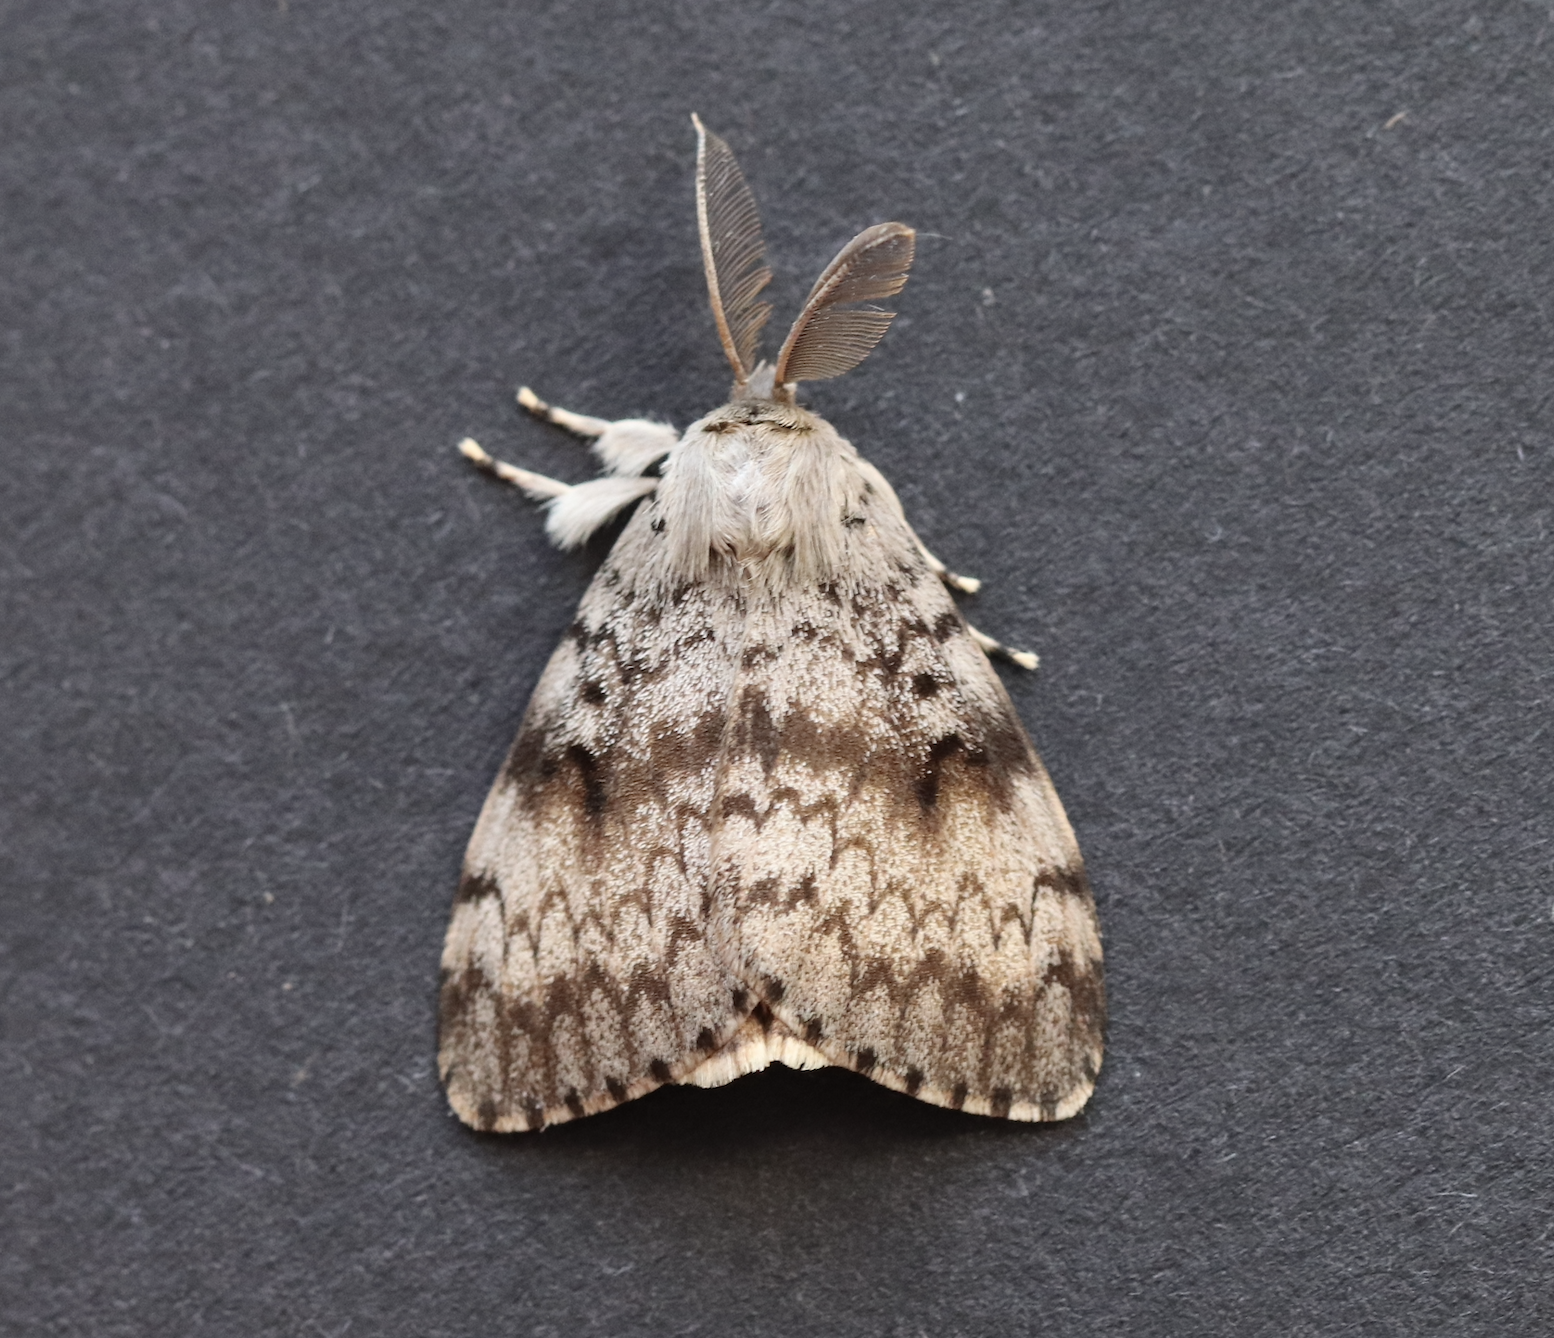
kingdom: Animalia
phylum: Arthropoda
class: Insecta
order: Lepidoptera
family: Erebidae
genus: Lymantria
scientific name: Lymantria dispar
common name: Gypsy moth
